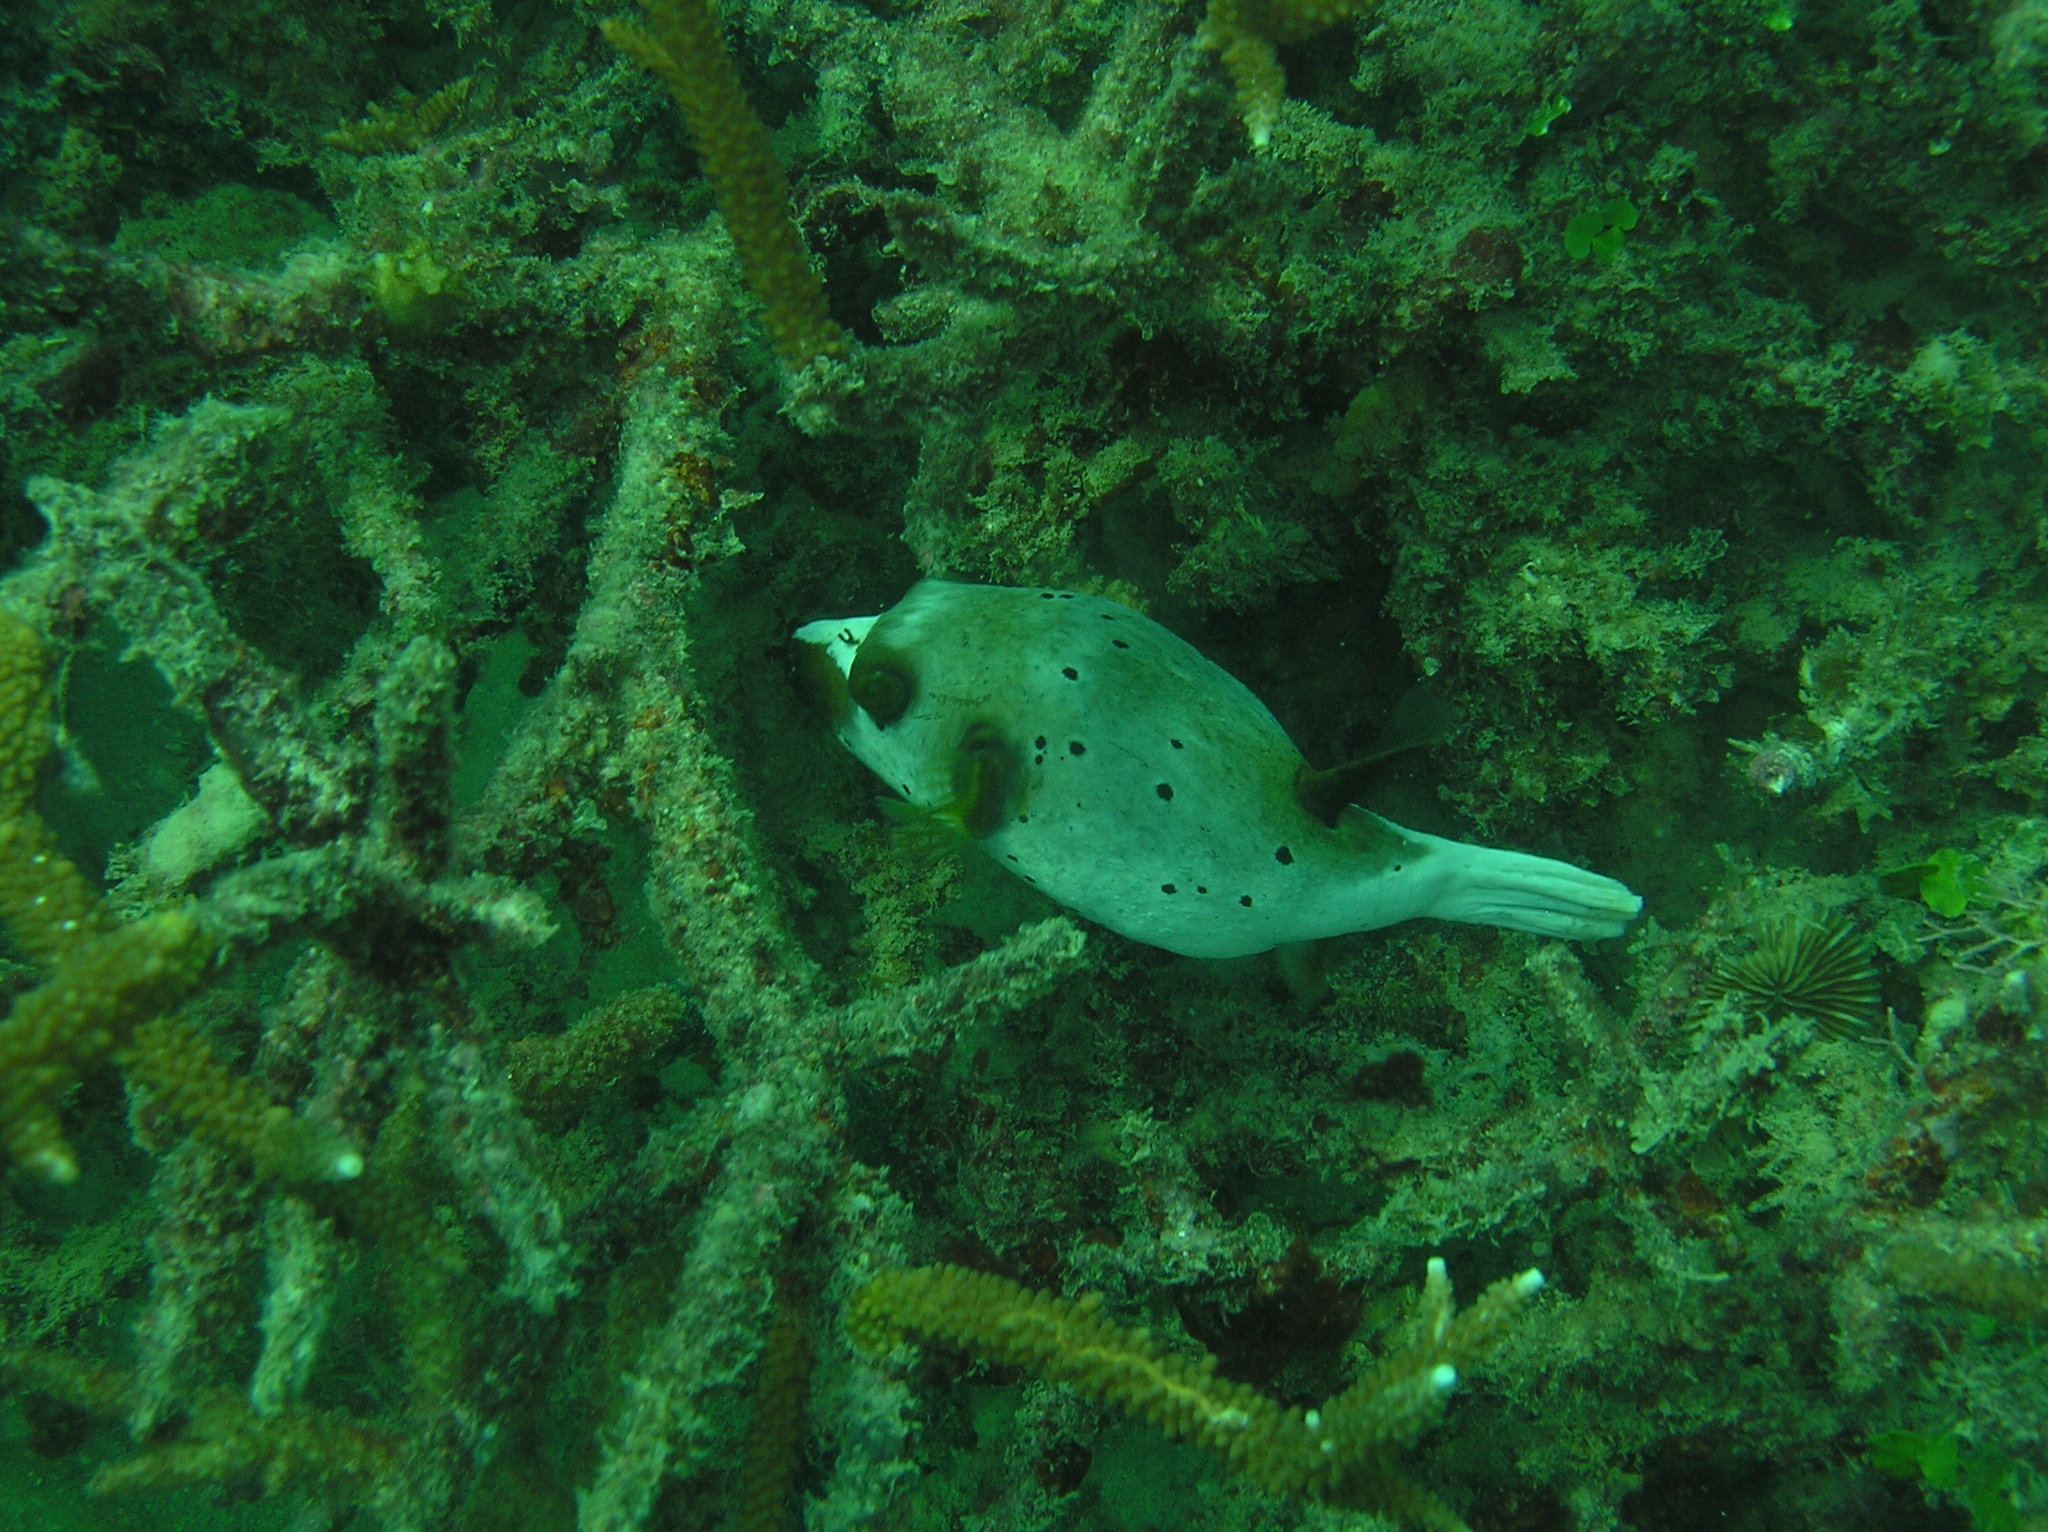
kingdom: Animalia
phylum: Chordata
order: Tetraodontiformes
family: Tetraodontidae
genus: Arothron
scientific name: Arothron nigropunctatus
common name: Black spotted blow fish
